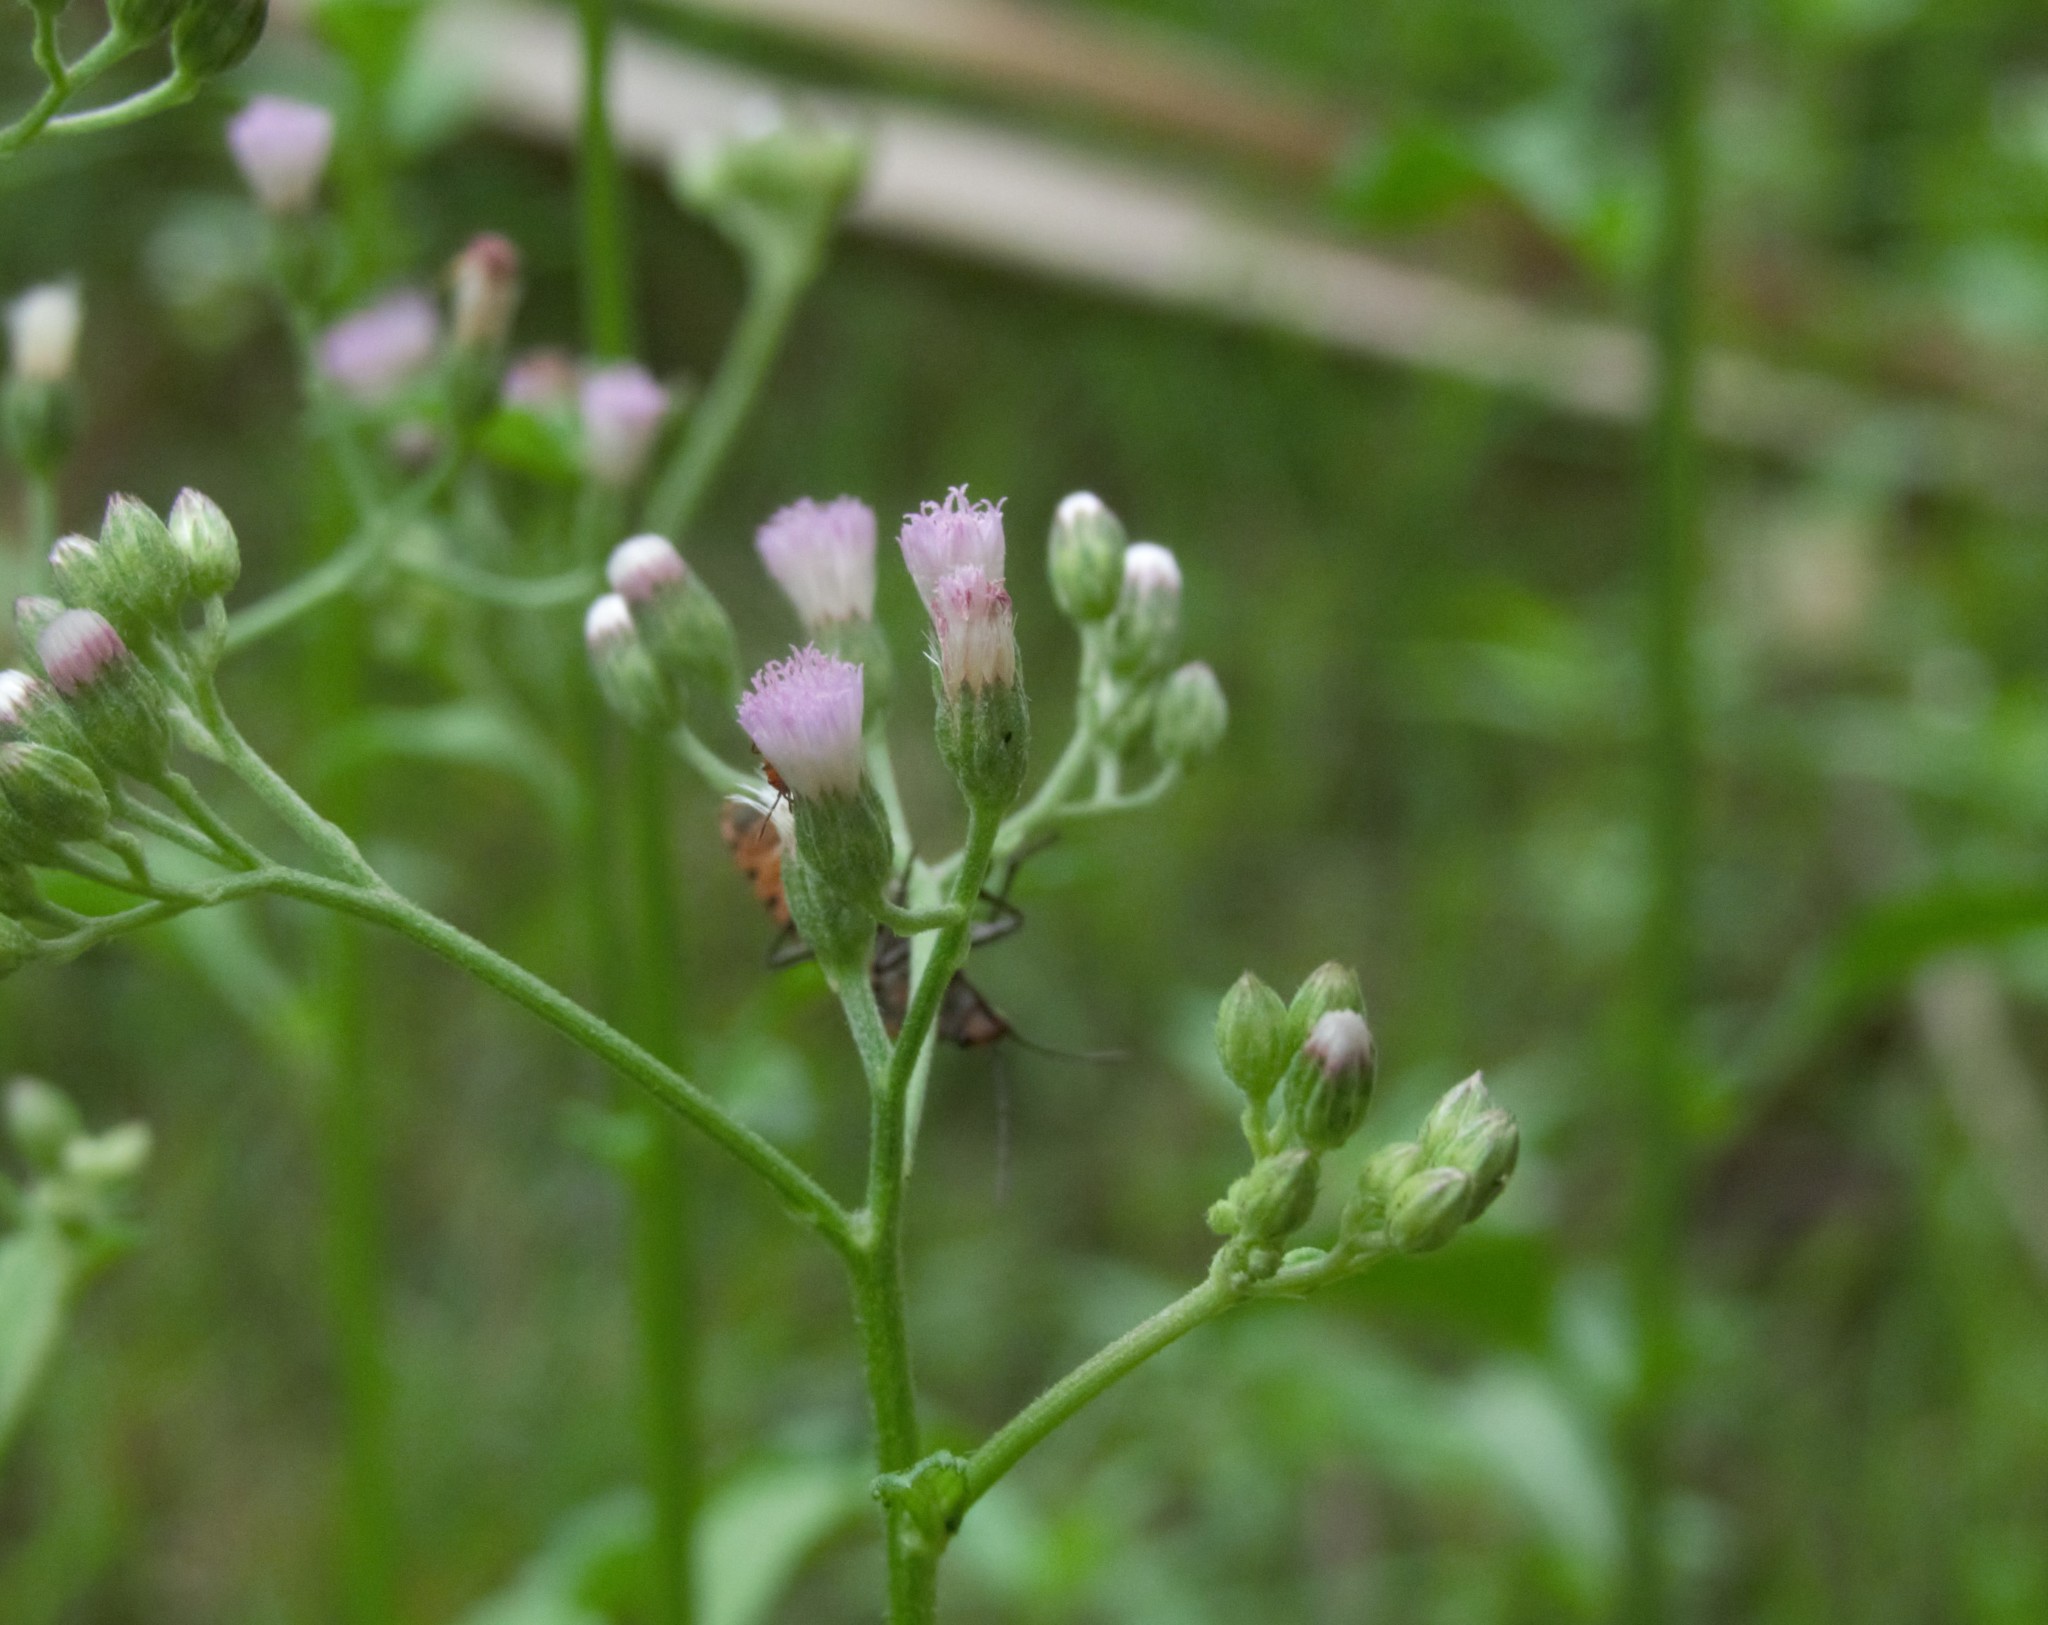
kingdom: Plantae
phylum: Tracheophyta
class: Magnoliopsida
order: Asterales
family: Asteraceae
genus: Cyanthillium
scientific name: Cyanthillium cinereum
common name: Little ironweed
